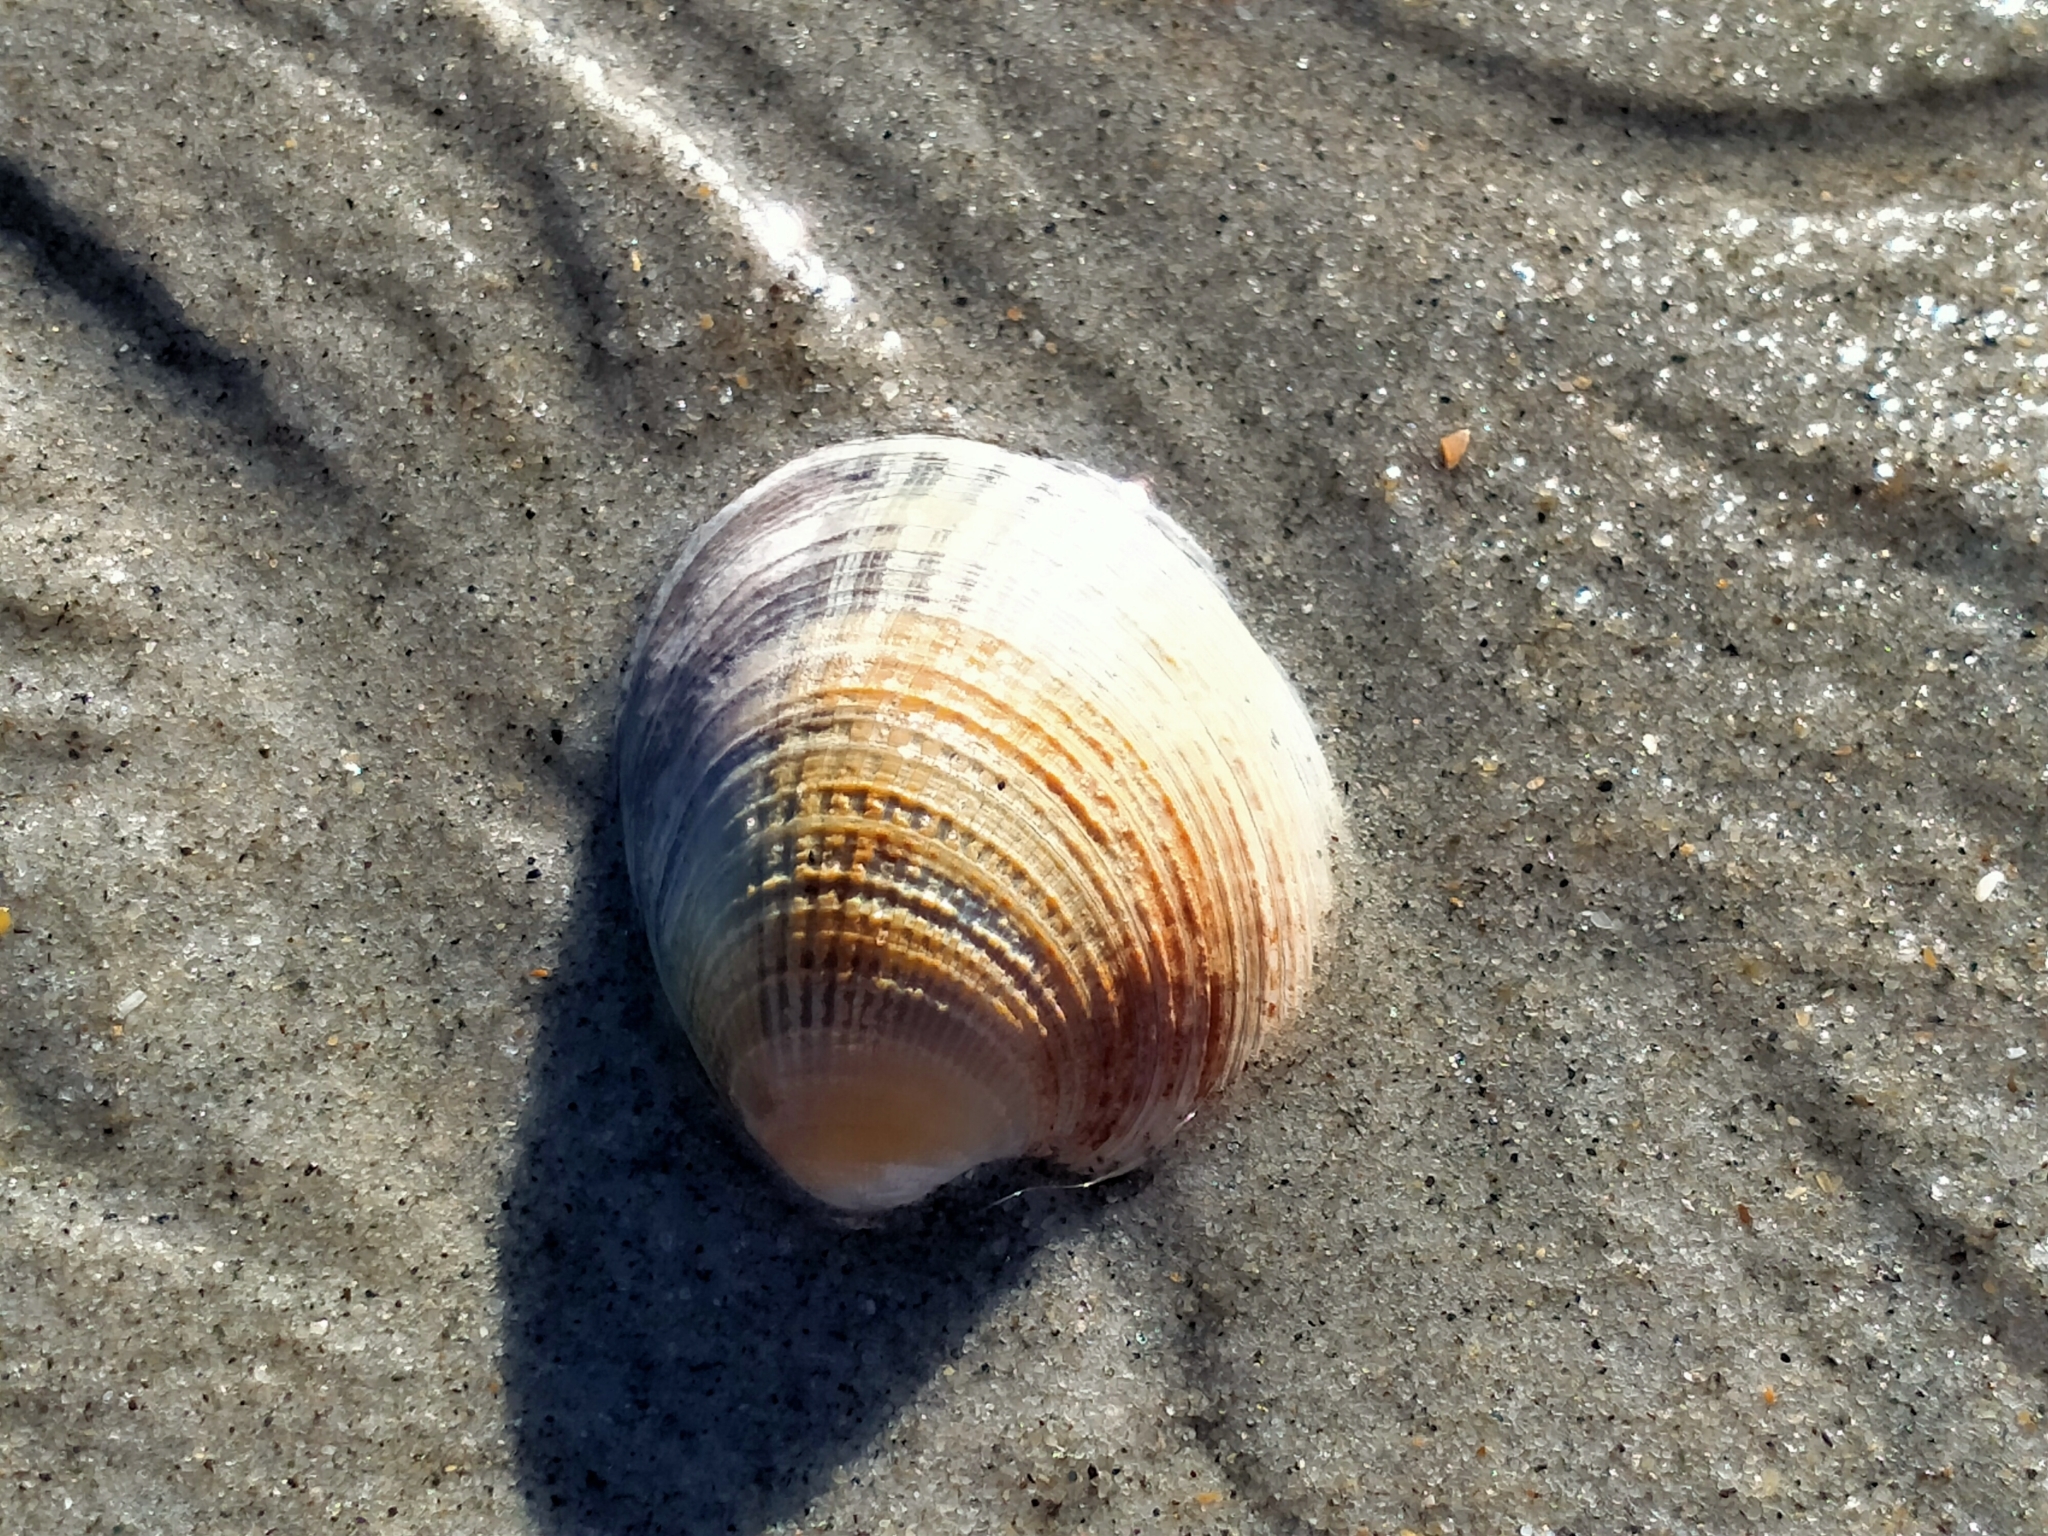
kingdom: Animalia
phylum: Mollusca
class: Bivalvia
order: Venerida
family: Veneridae
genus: Austrovenus
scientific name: Austrovenus stutchburyi
